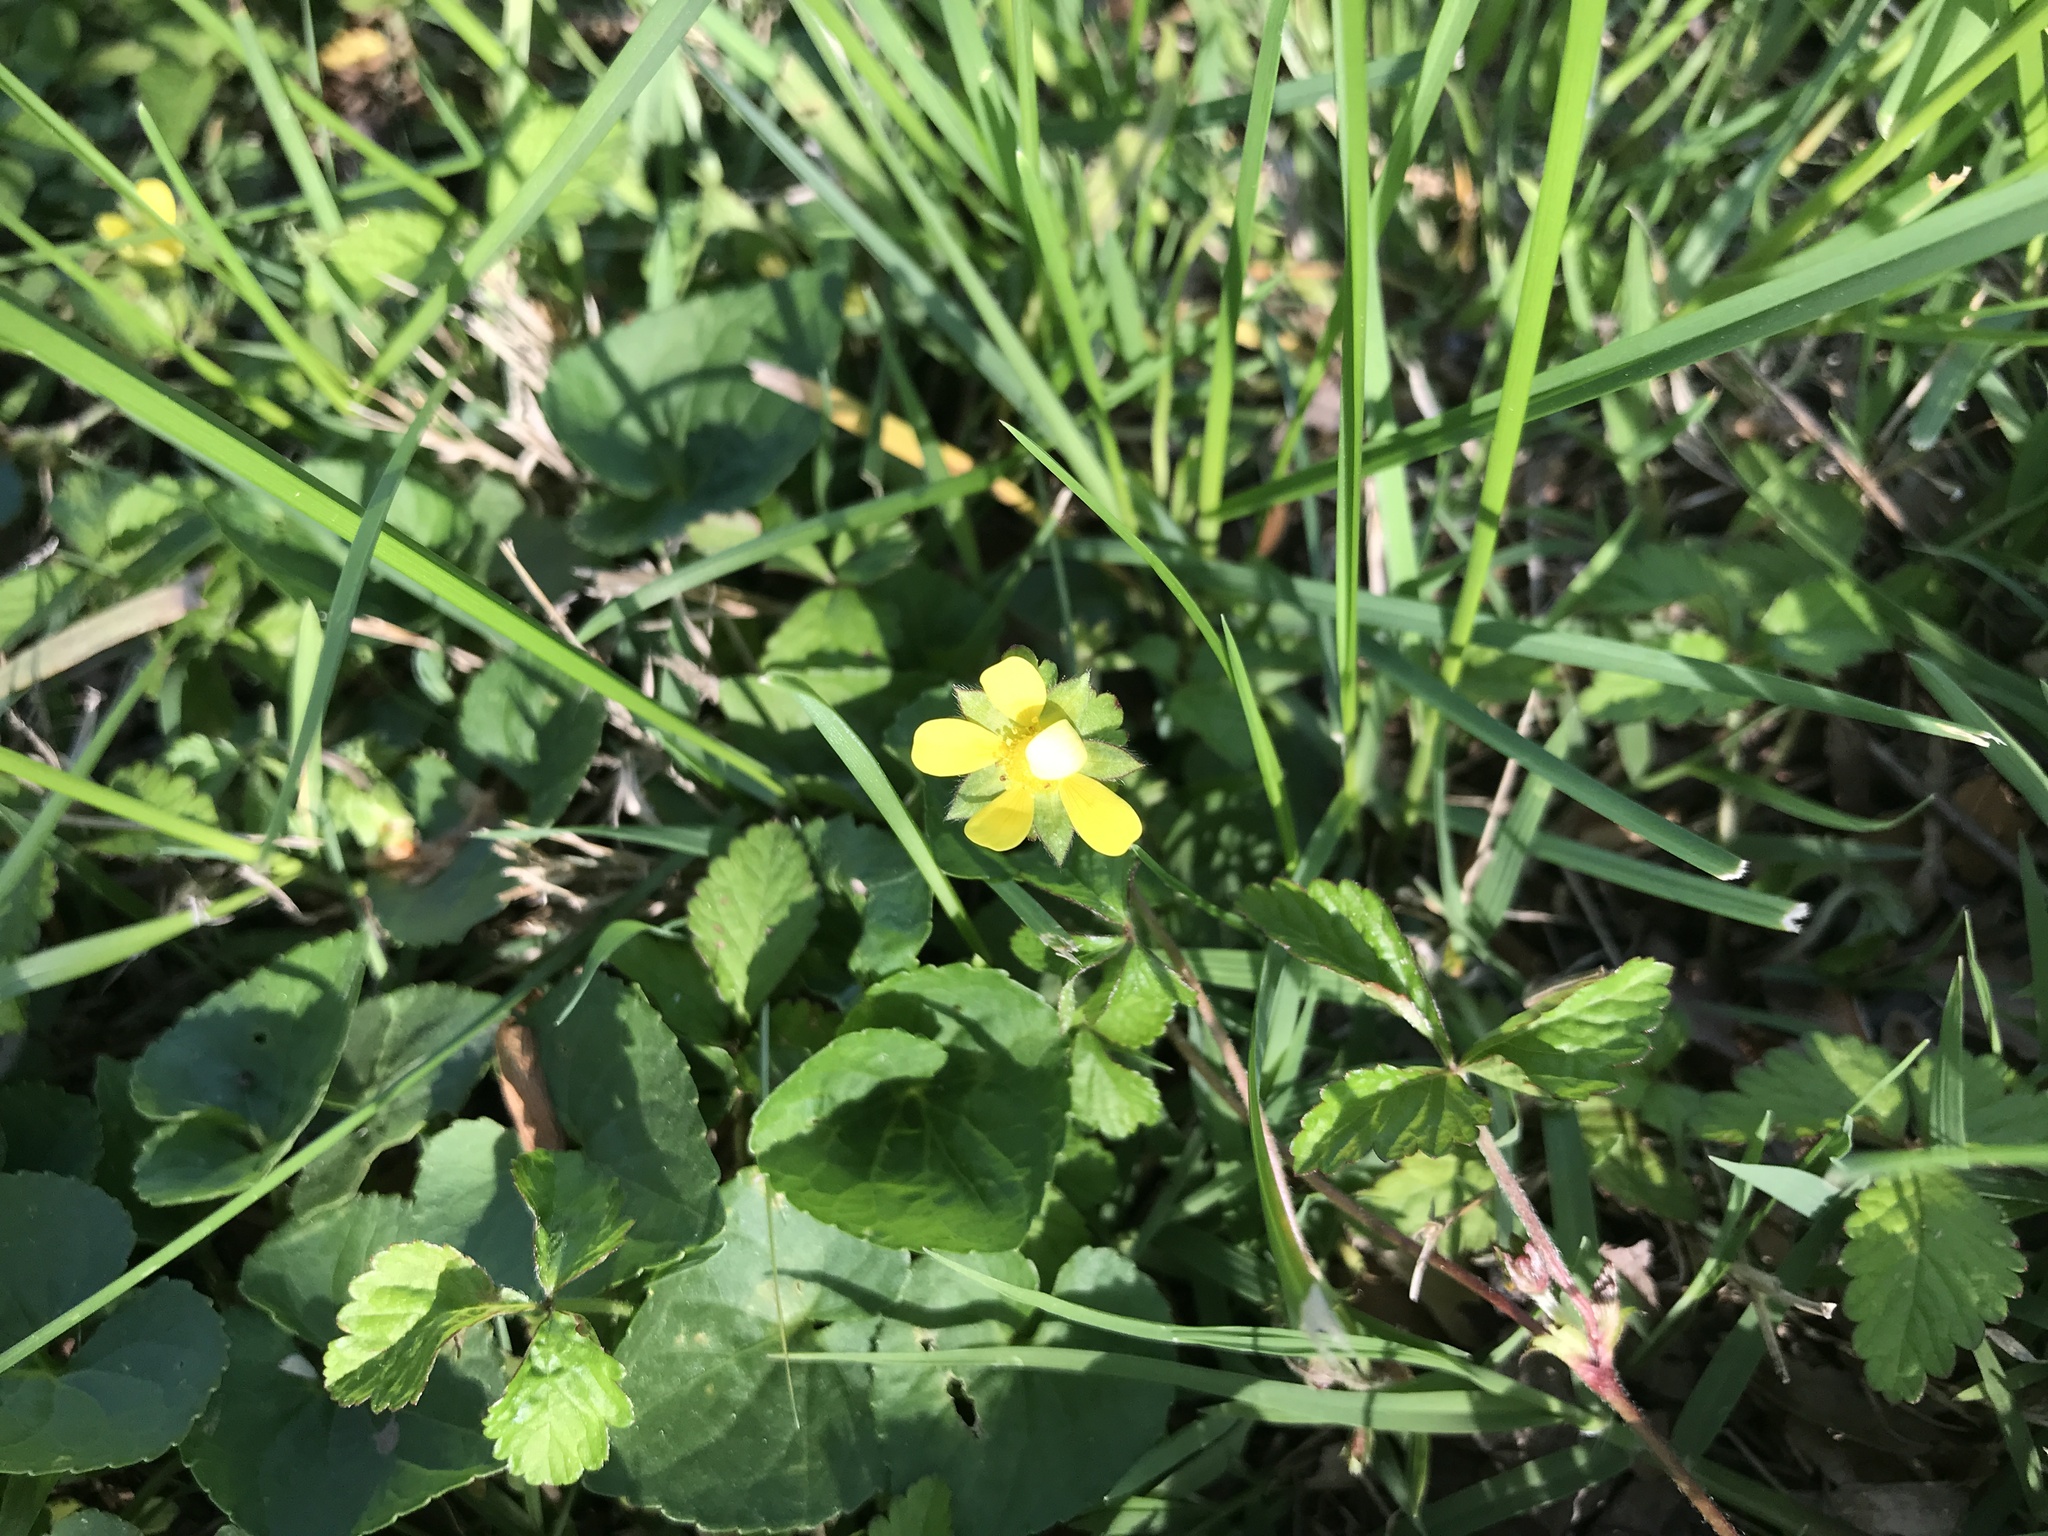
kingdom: Plantae
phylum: Tracheophyta
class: Magnoliopsida
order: Rosales
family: Rosaceae
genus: Potentilla
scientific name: Potentilla indica
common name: Yellow-flowered strawberry
